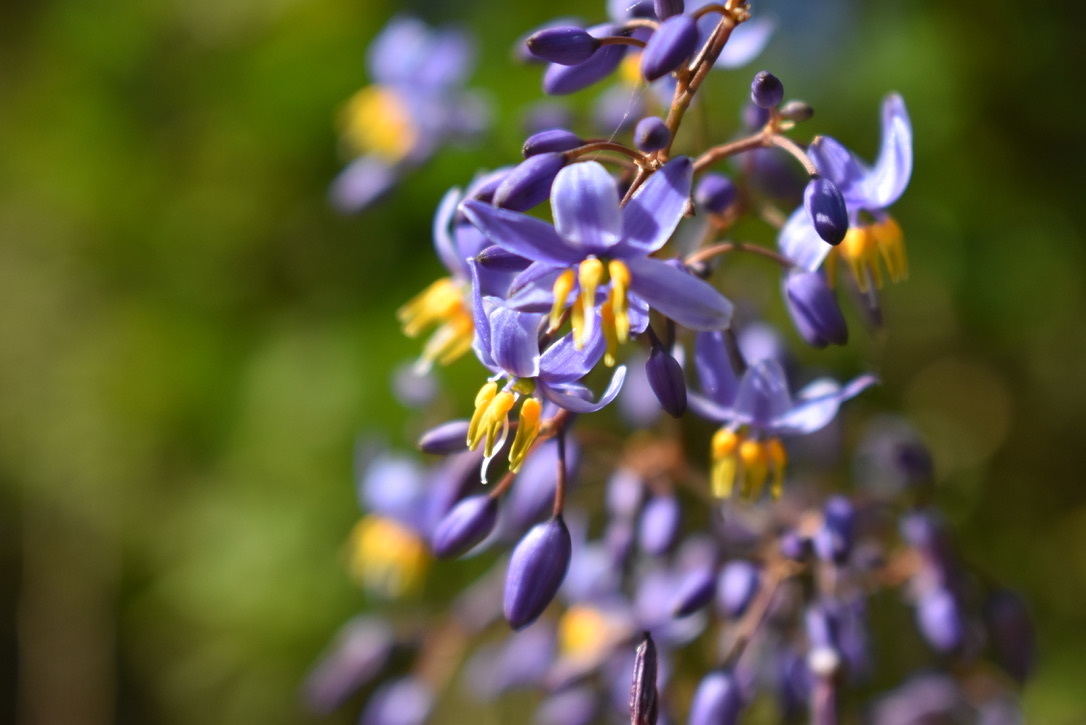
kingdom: Plantae
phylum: Tracheophyta
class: Liliopsida
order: Asparagales
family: Asphodelaceae
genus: Dianella
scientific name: Dianella caerulea
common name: Blue flax-lily
